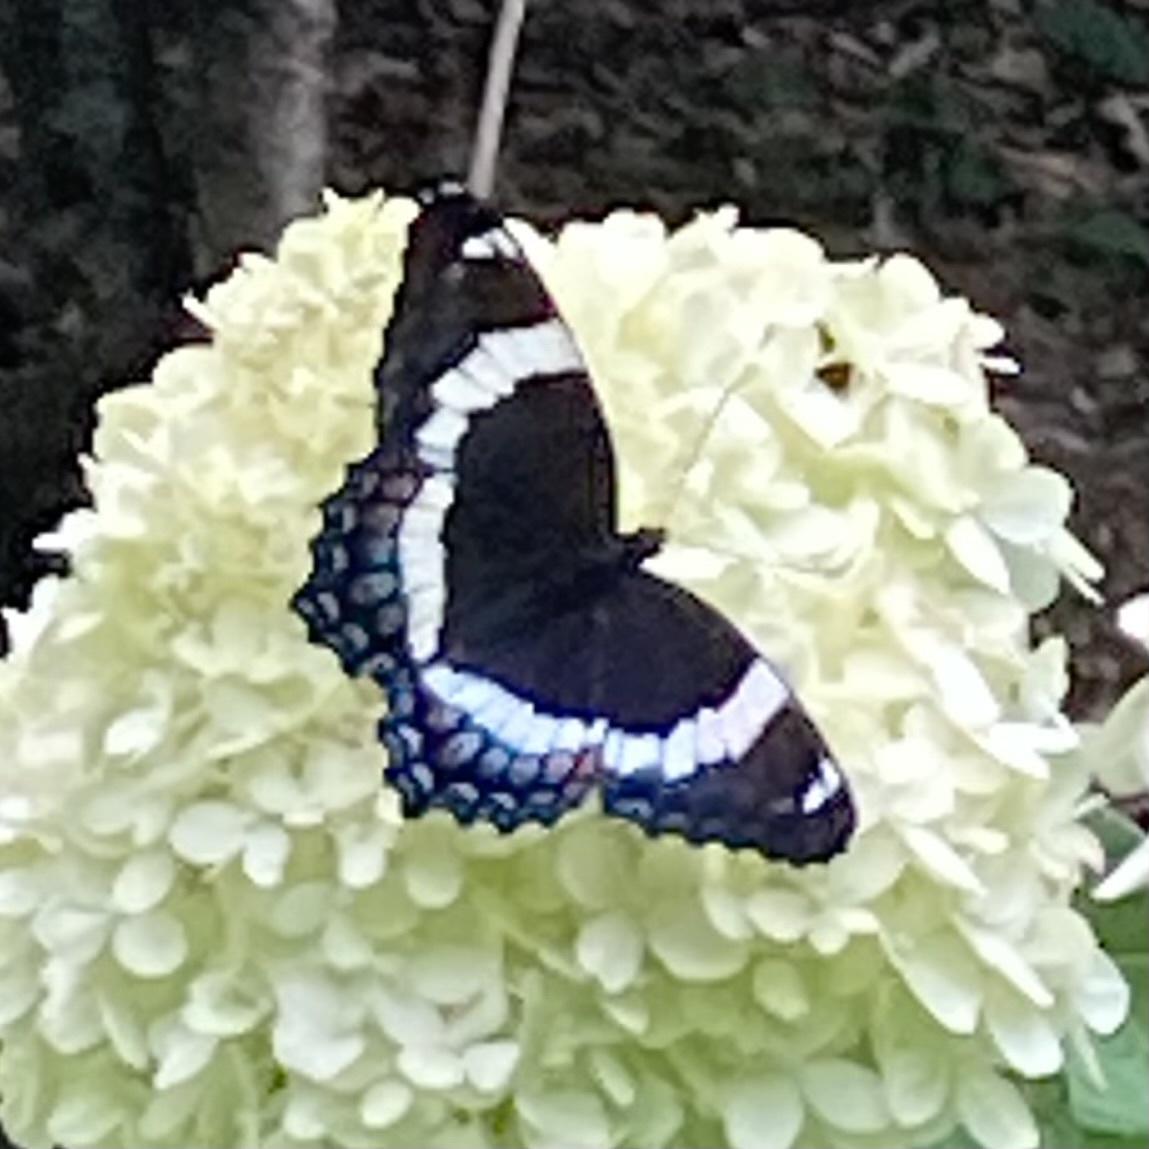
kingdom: Animalia
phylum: Arthropoda
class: Insecta
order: Lepidoptera
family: Nymphalidae
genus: Limenitis
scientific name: Limenitis arthemis
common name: Red-spotted admiral
